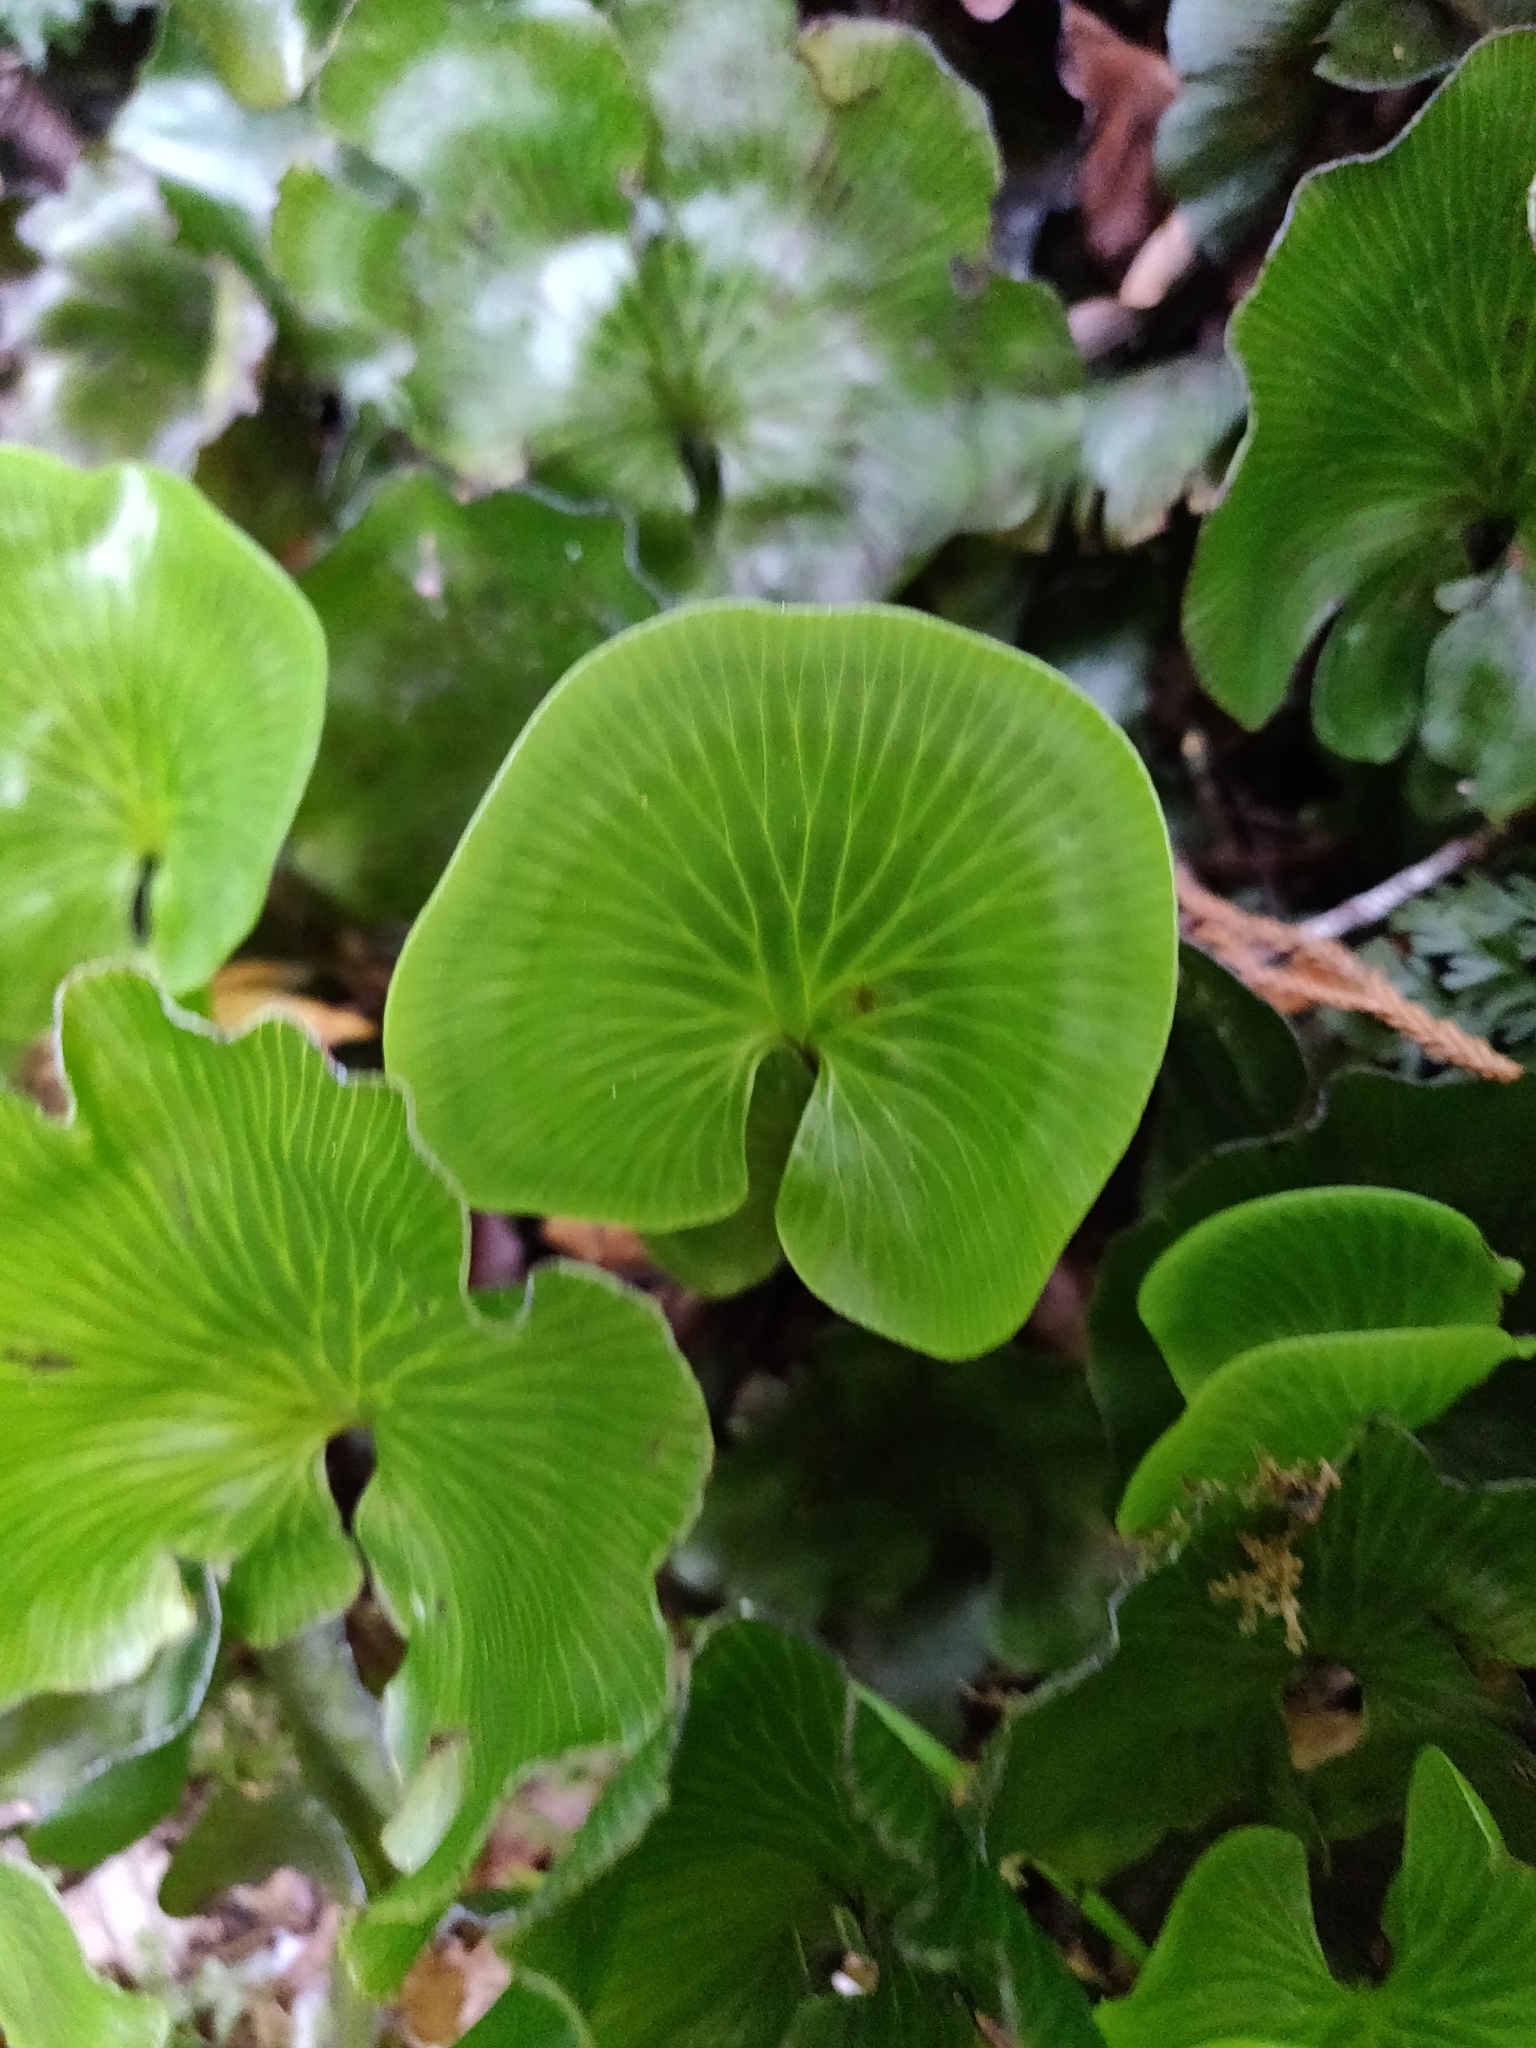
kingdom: Plantae
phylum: Tracheophyta
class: Polypodiopsida
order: Hymenophyllales
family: Hymenophyllaceae
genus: Hymenophyllum
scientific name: Hymenophyllum nephrophyllum
